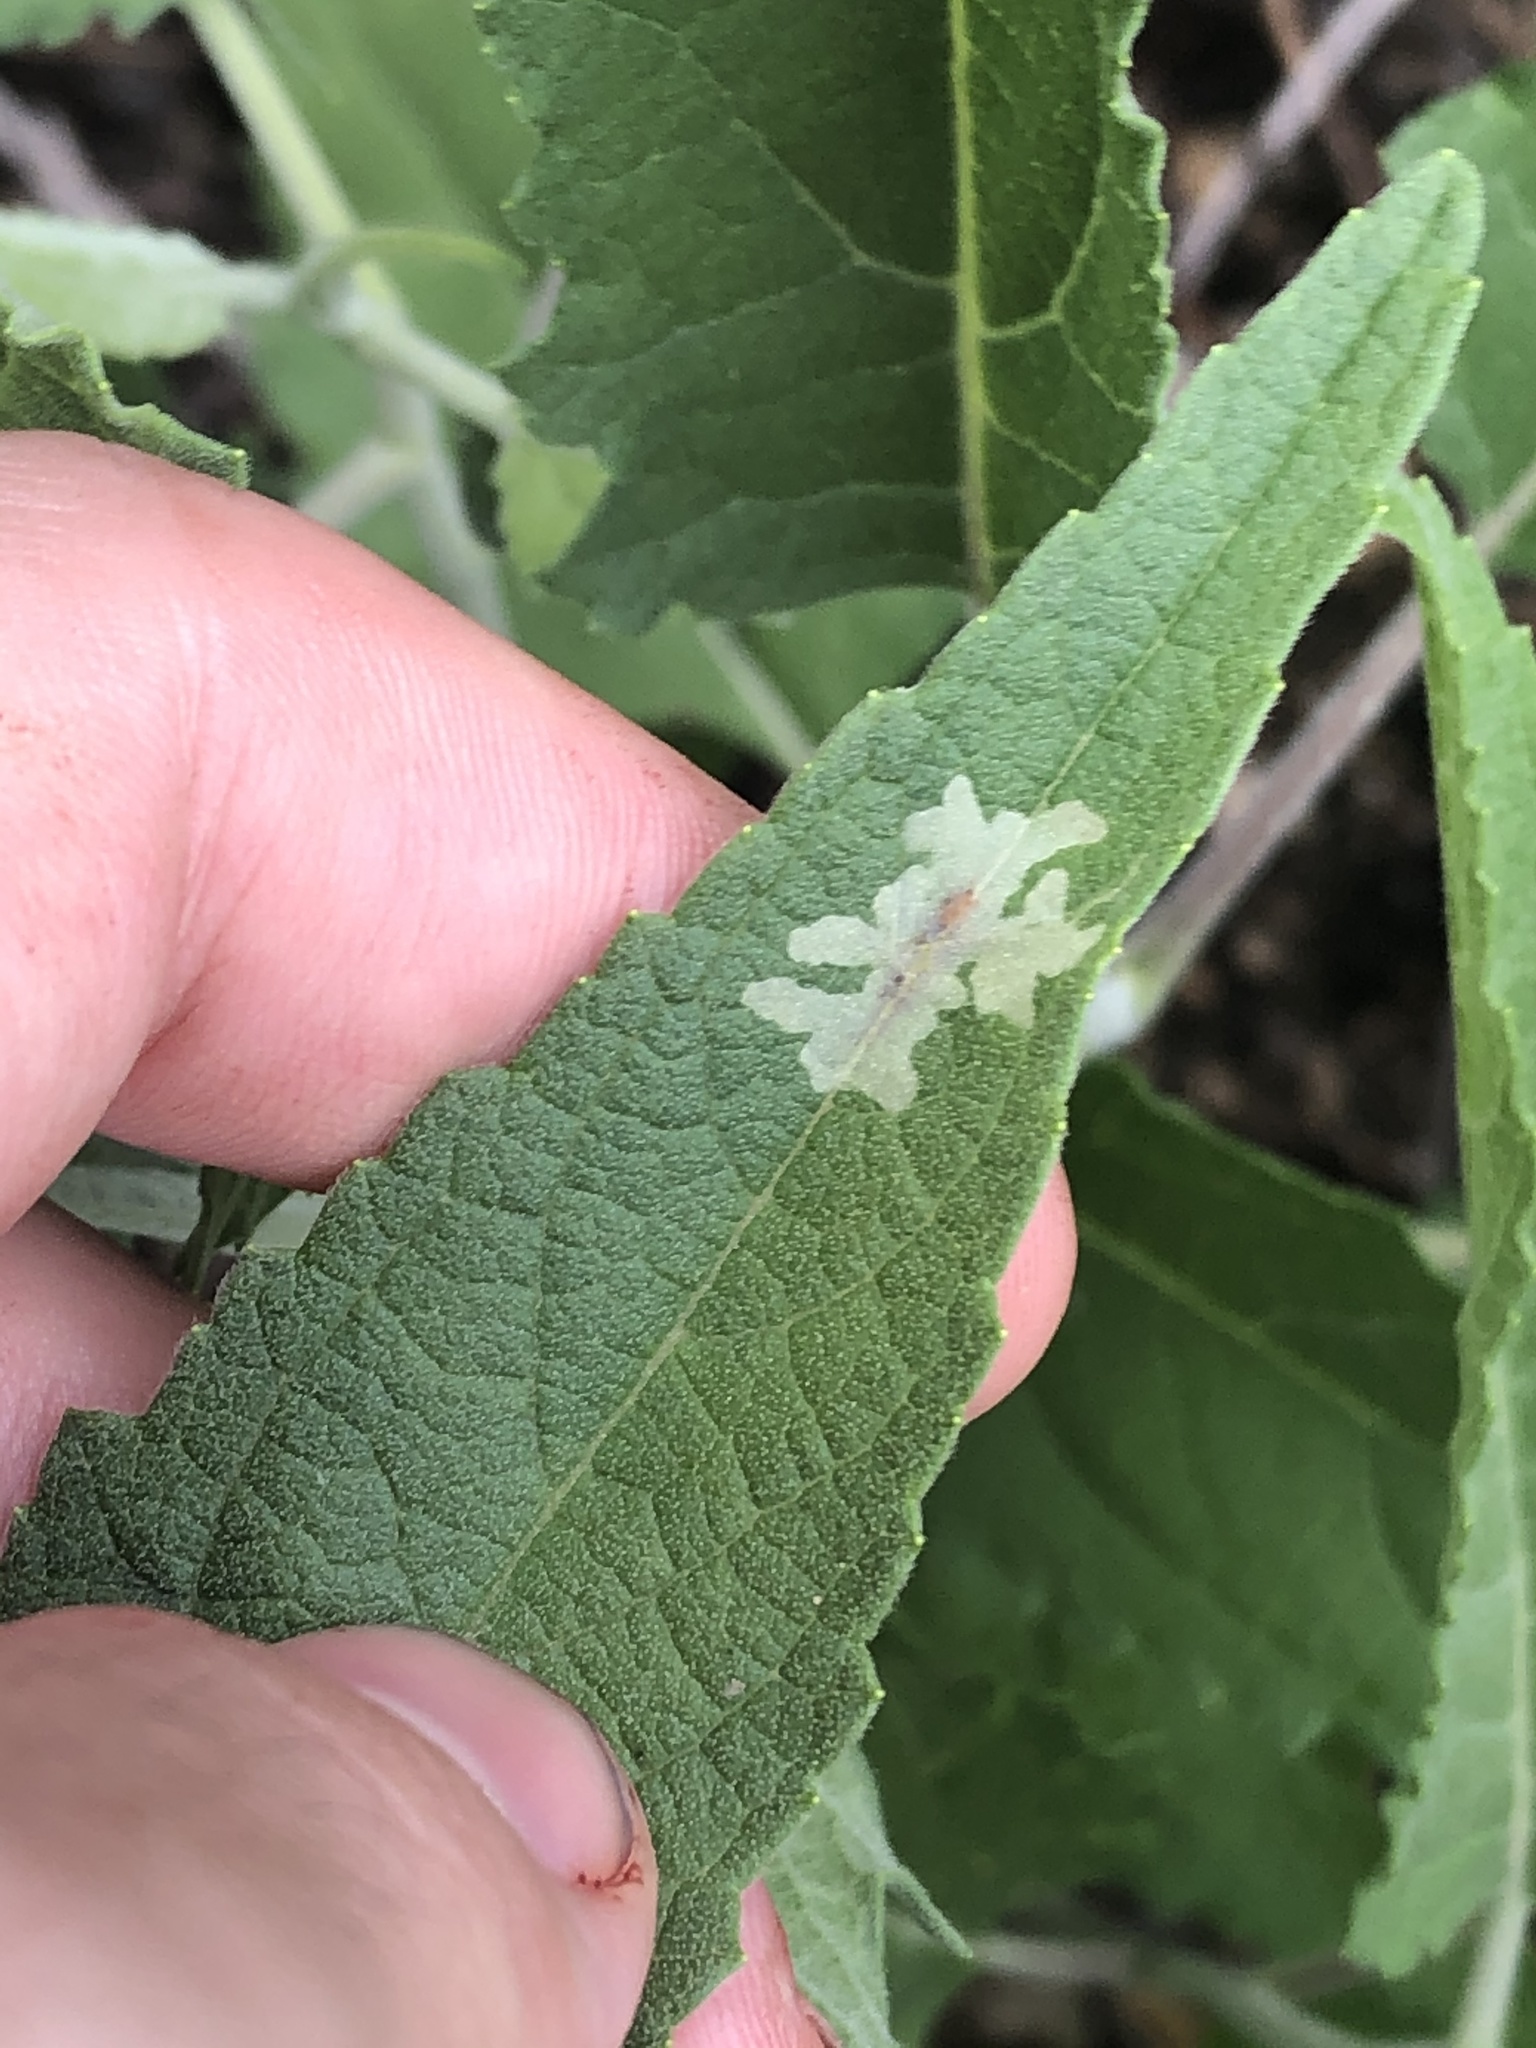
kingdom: Animalia
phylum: Arthropoda
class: Insecta
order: Diptera
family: Agromyzidae
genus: Calycomyza
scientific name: Calycomyza platyptera
